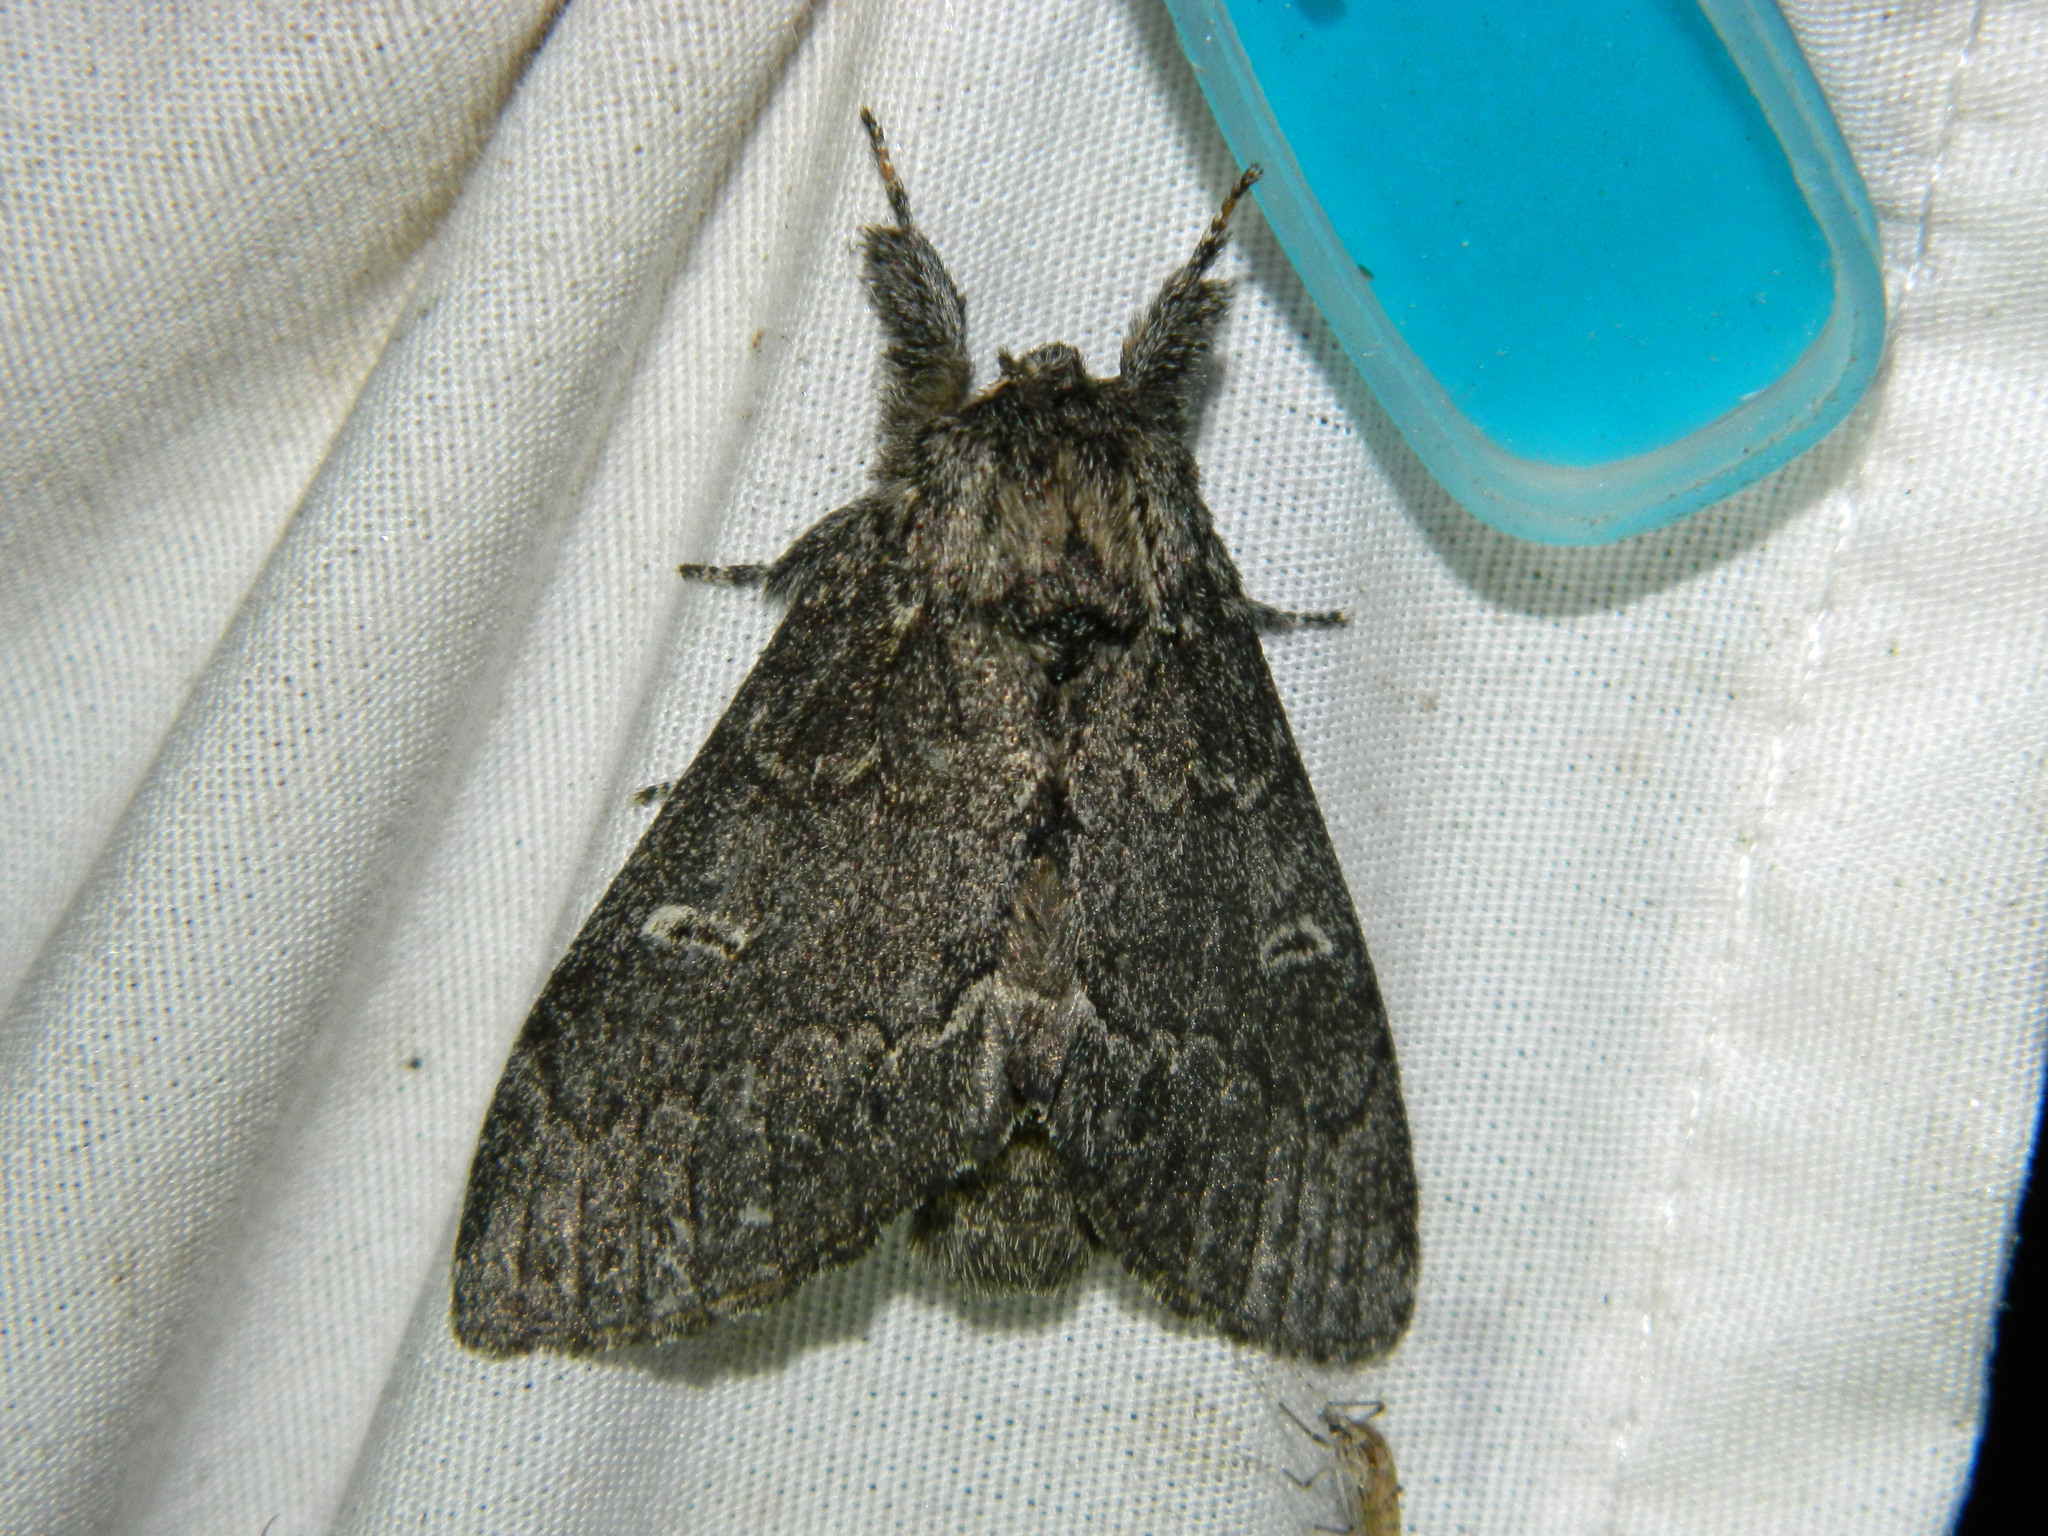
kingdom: Animalia
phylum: Arthropoda
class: Insecta
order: Lepidoptera
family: Notodontidae
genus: Notodonta
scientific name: Notodonta torva
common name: Large dark prominent
